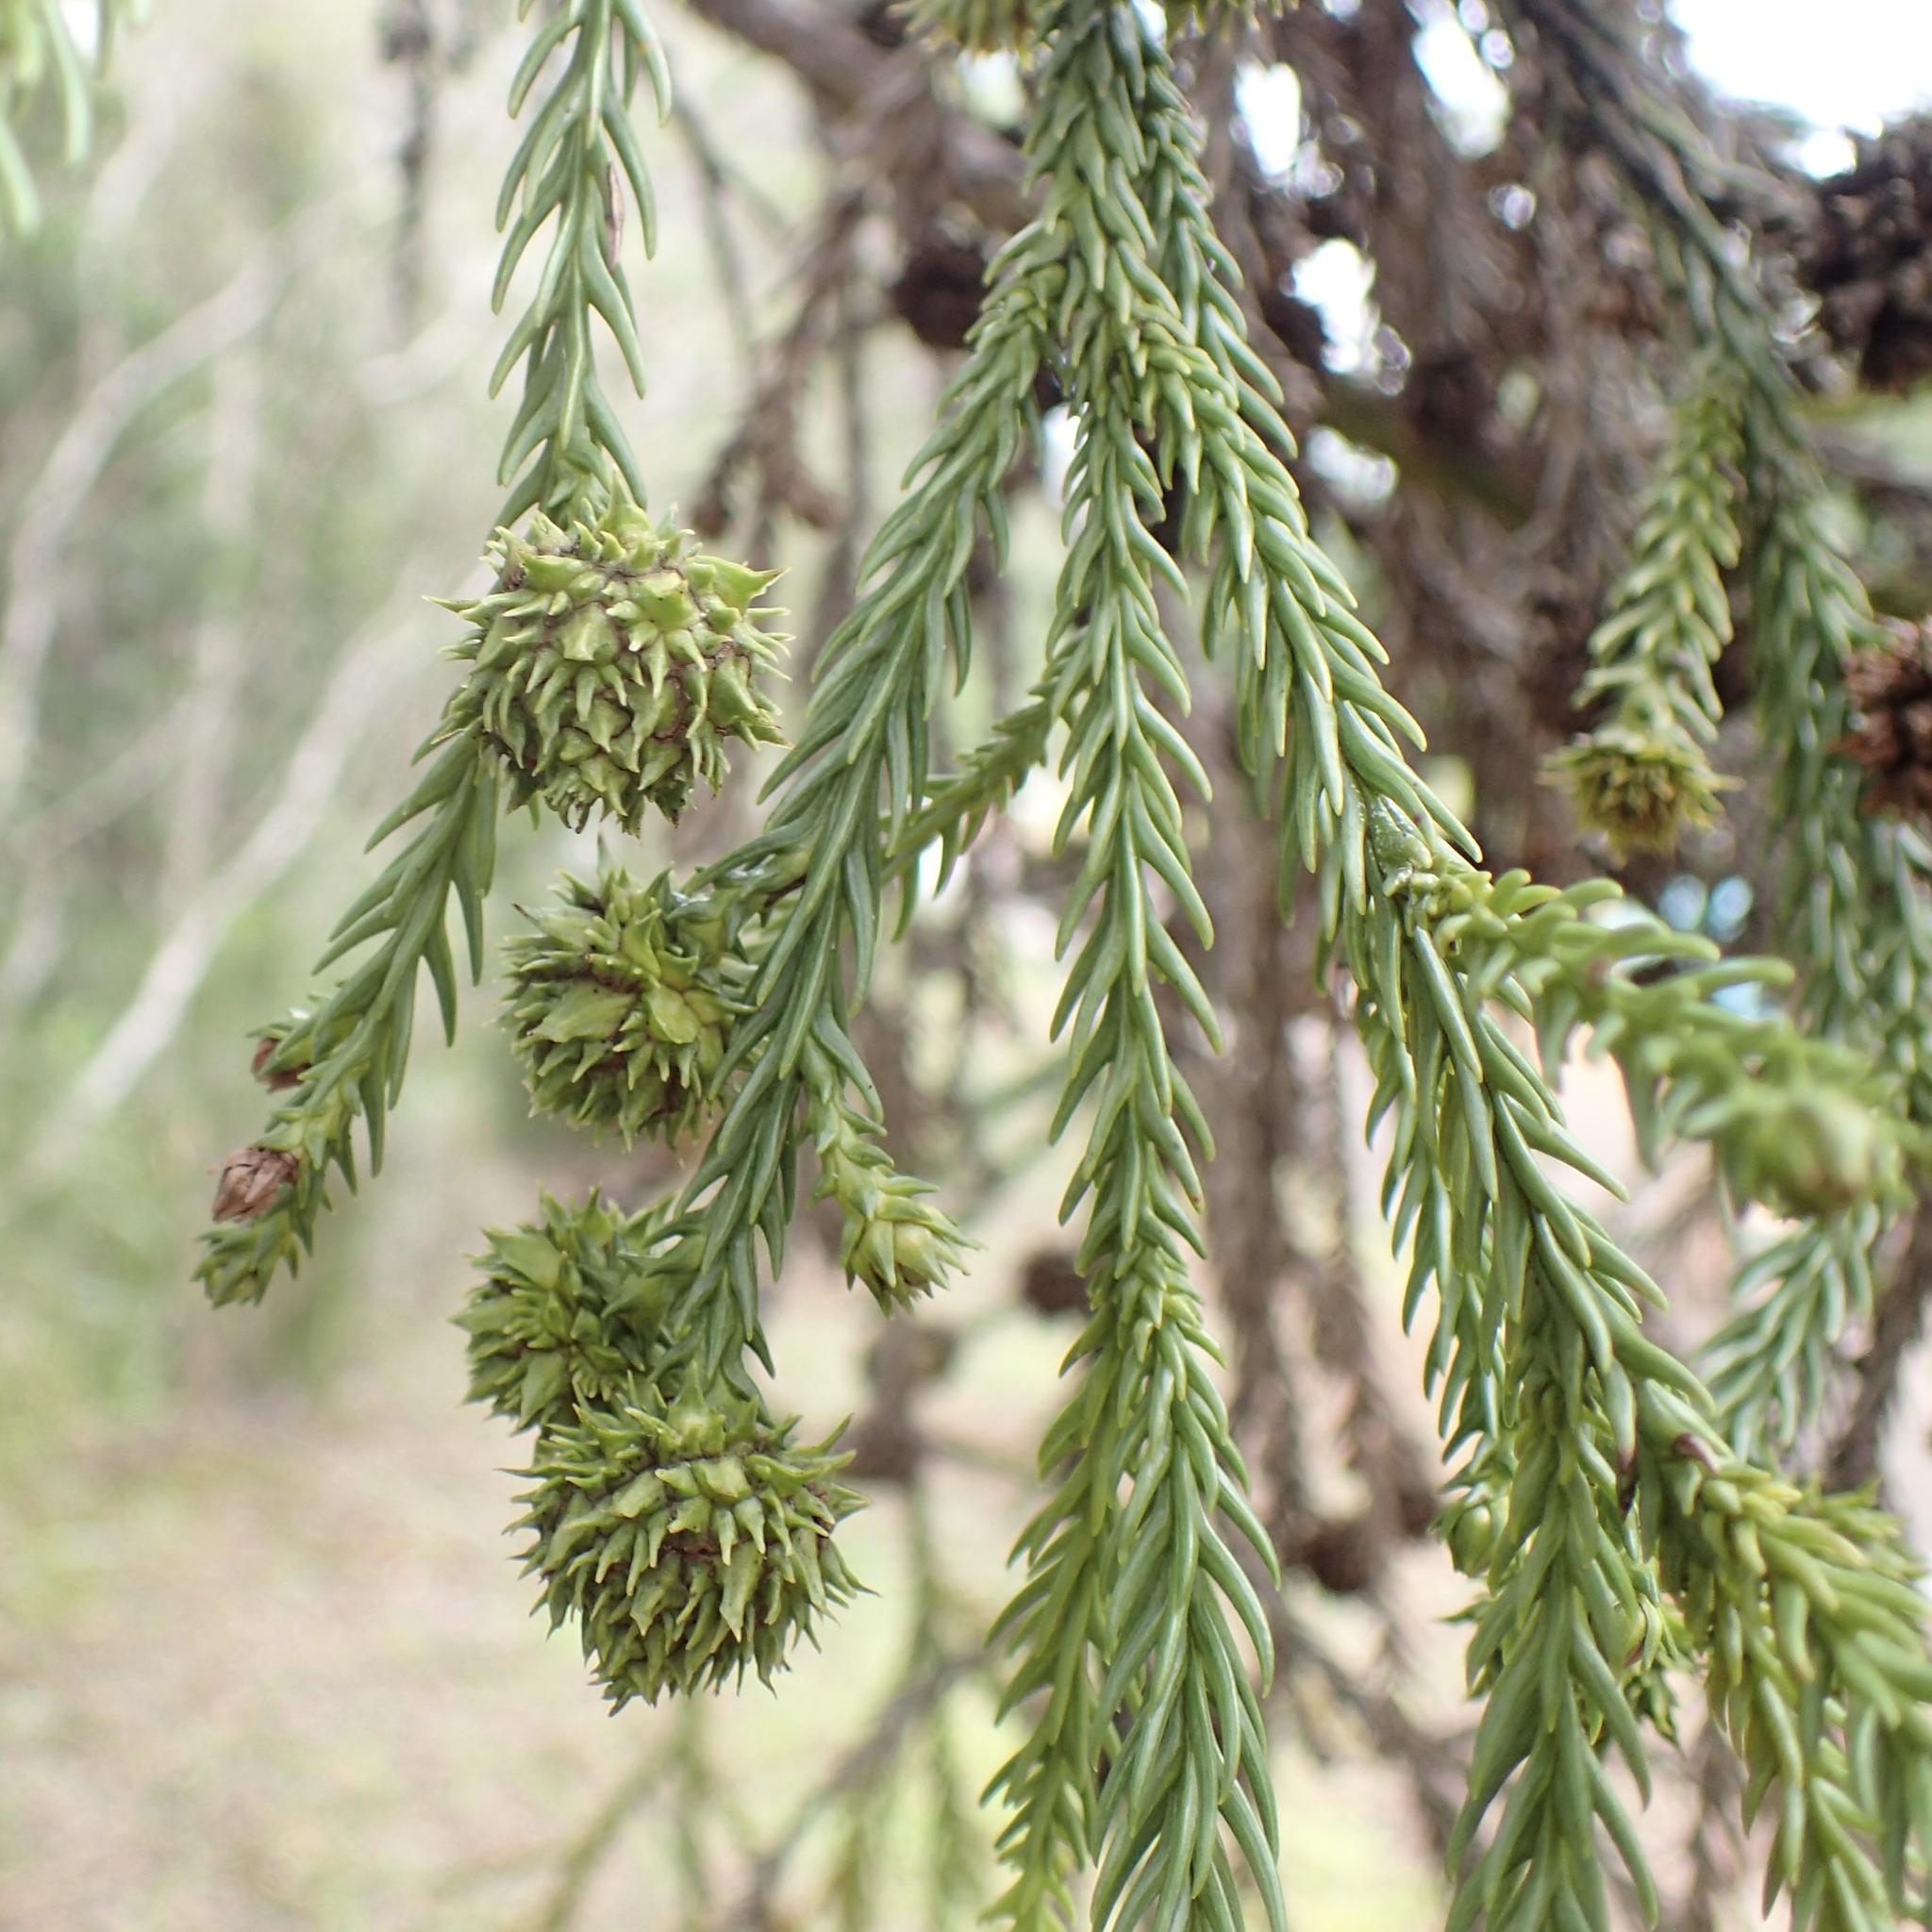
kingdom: Plantae
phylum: Tracheophyta
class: Pinopsida
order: Pinales
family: Cupressaceae
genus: Cryptomeria
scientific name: Cryptomeria japonica
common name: Japanese cedar
